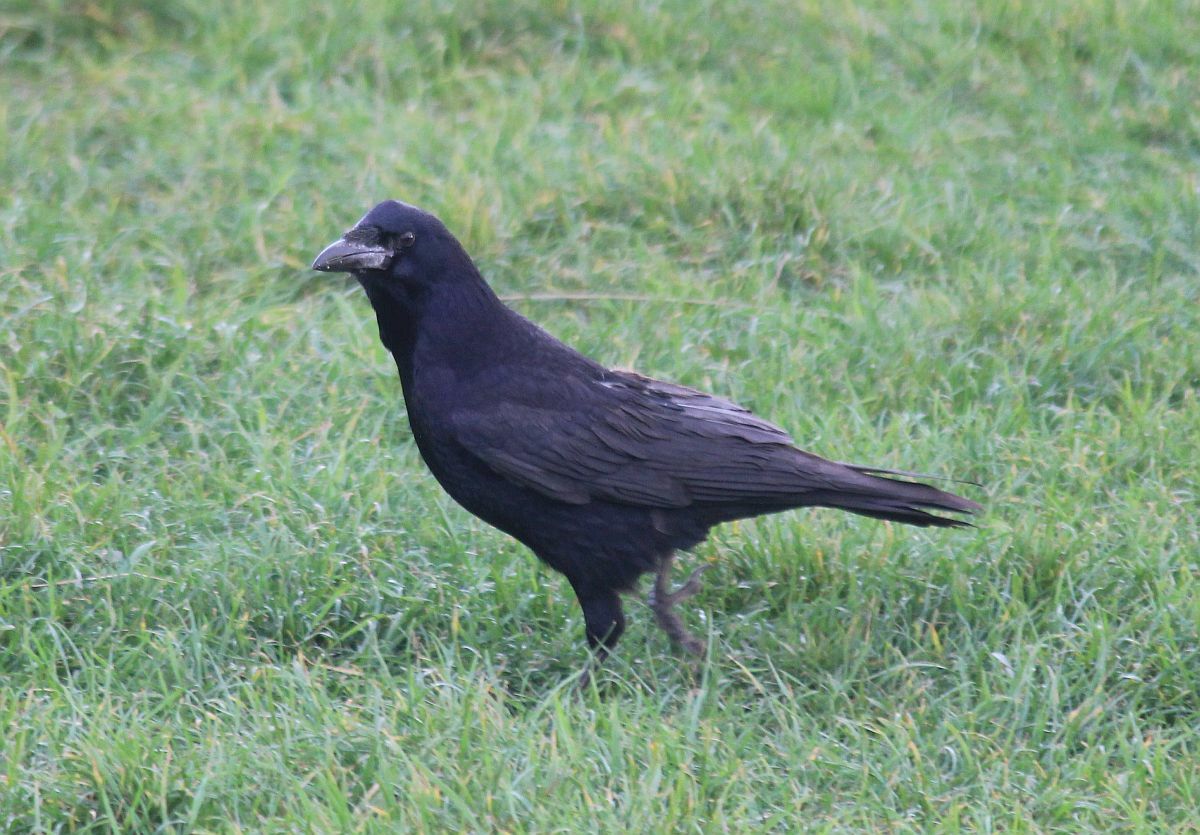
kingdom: Animalia
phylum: Chordata
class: Aves
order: Passeriformes
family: Corvidae
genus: Corvus
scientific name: Corvus corone
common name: Carrion crow
